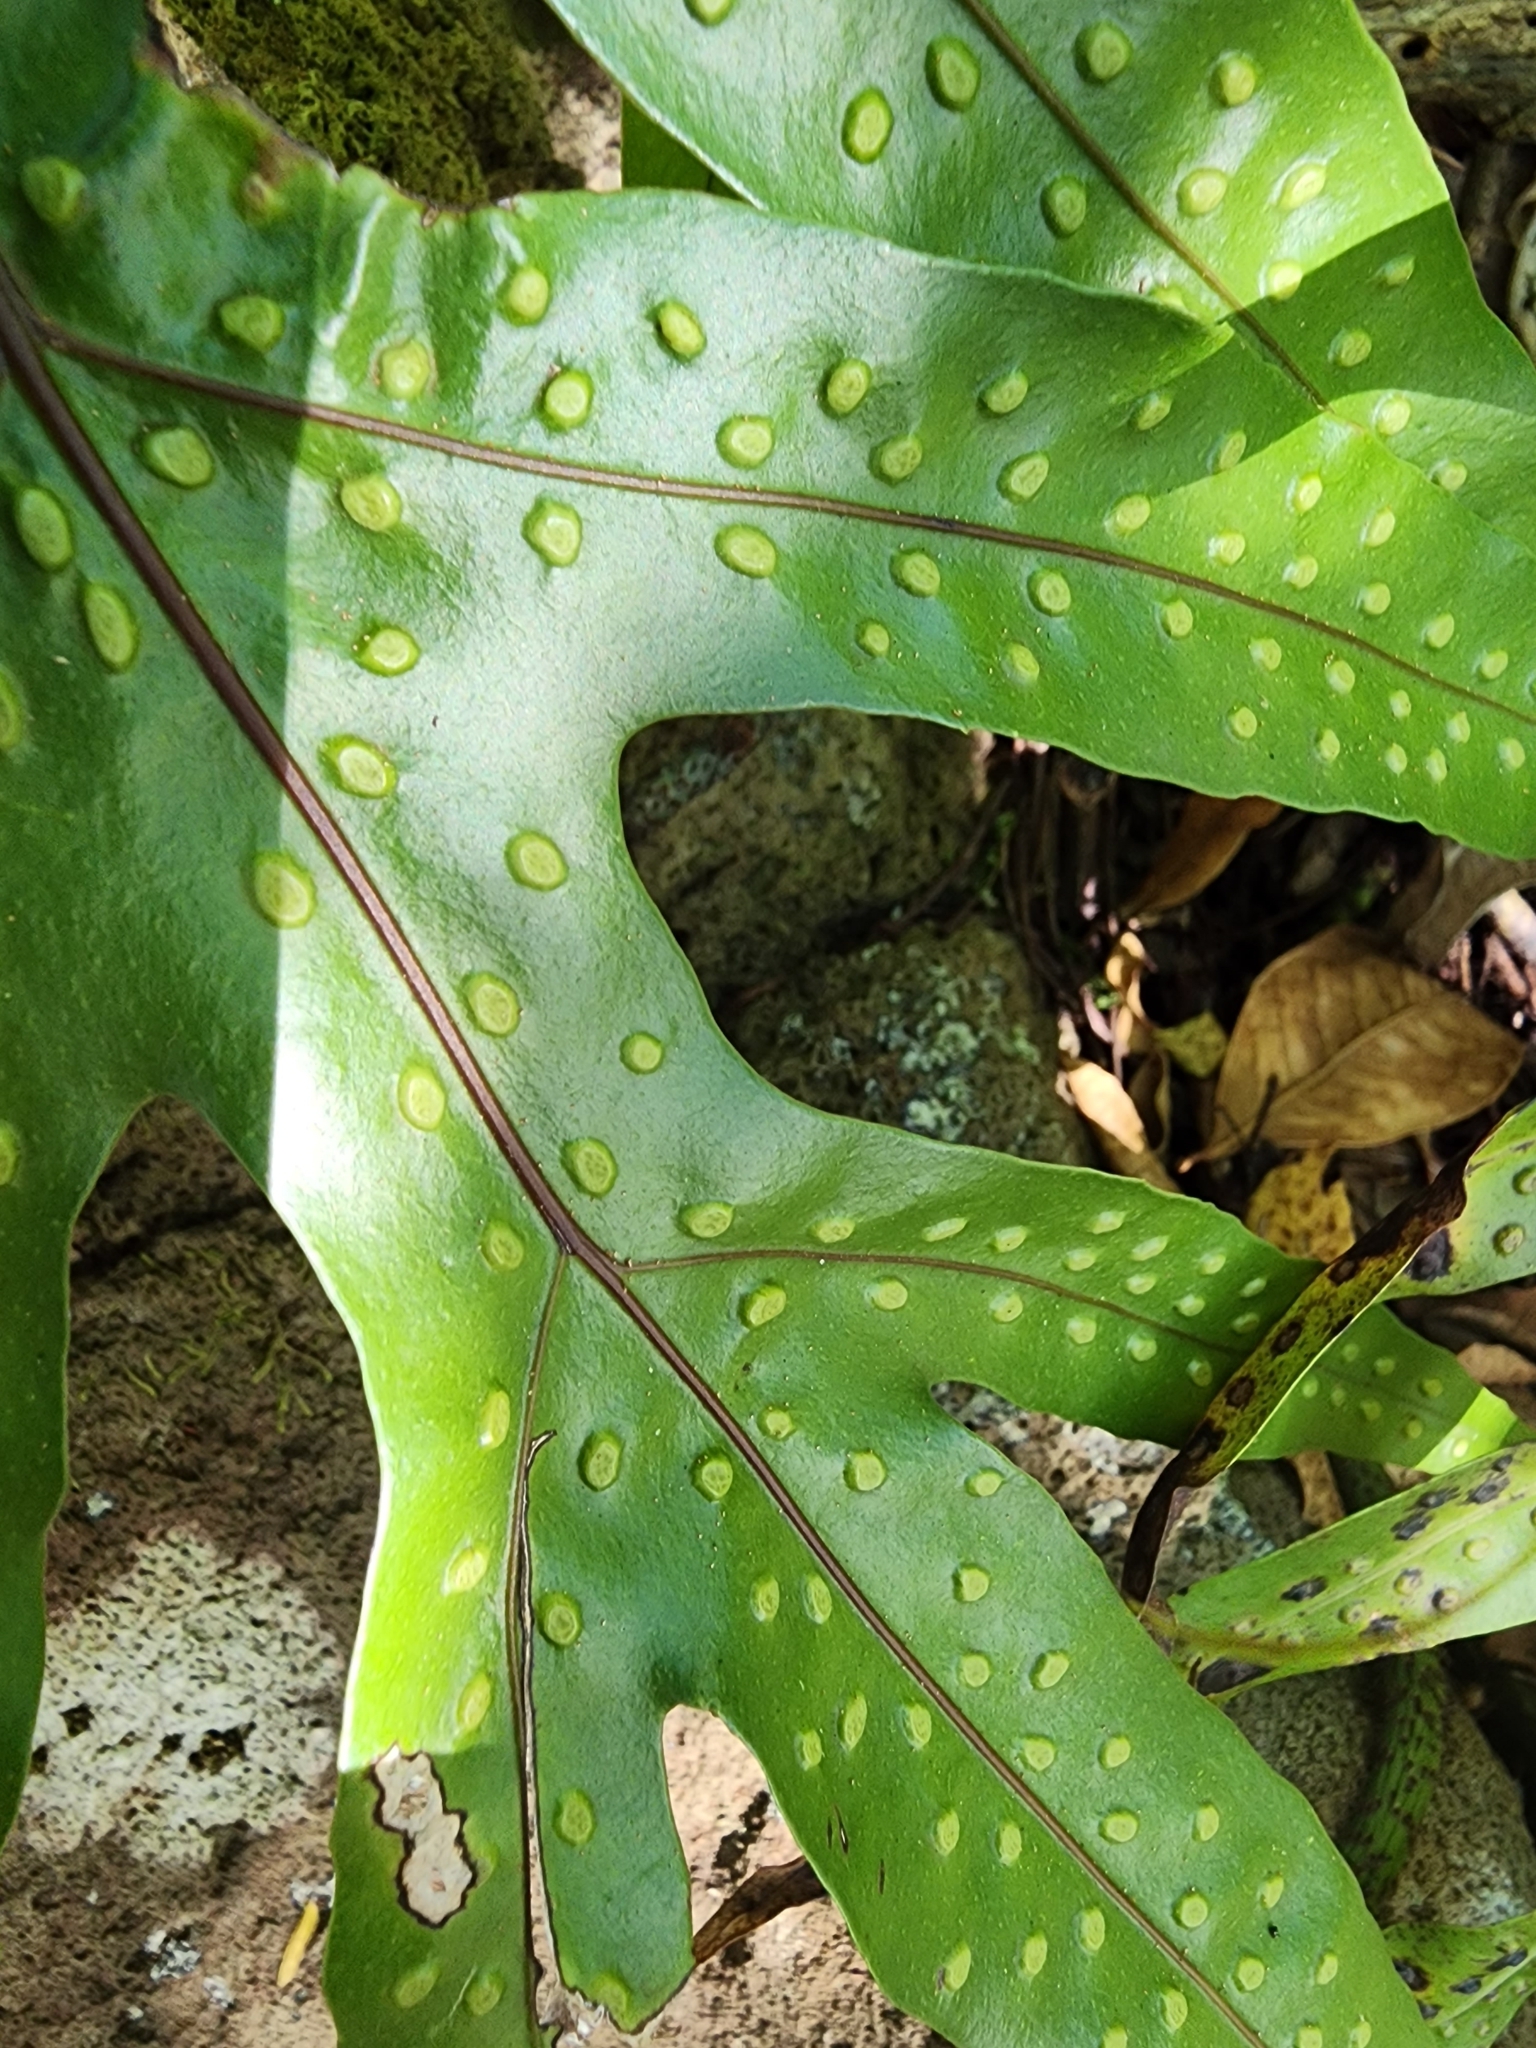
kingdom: Plantae
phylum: Tracheophyta
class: Polypodiopsida
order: Polypodiales
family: Polypodiaceae
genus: Microsorum
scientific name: Microsorum grossum
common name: Musk fern
